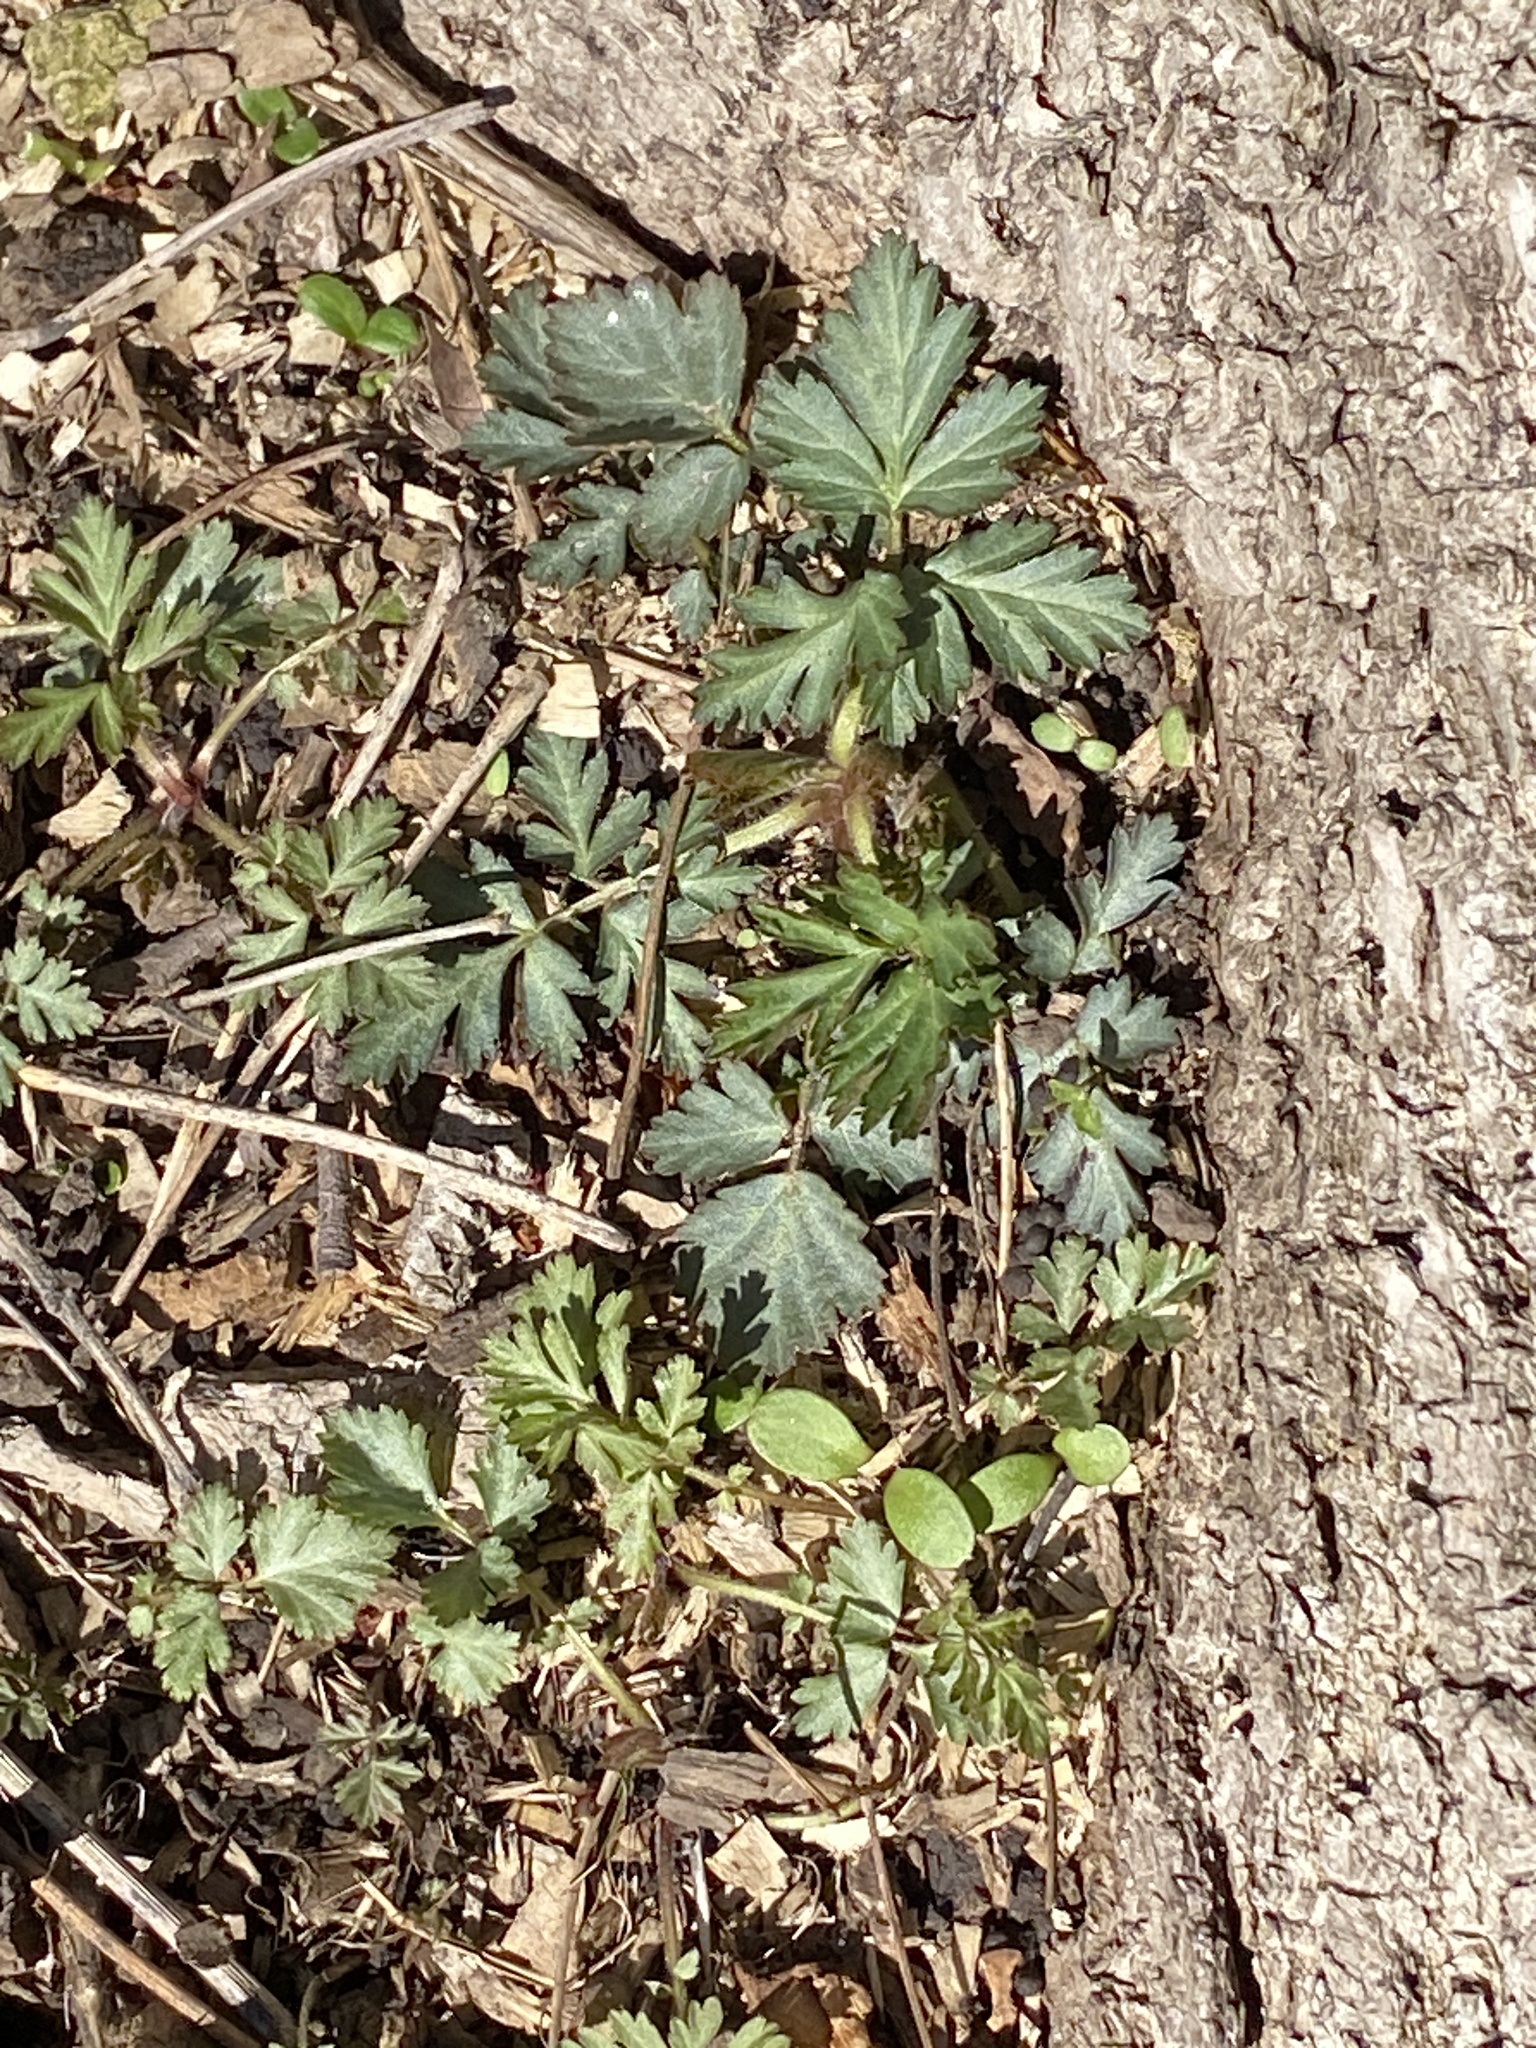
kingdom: Plantae
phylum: Tracheophyta
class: Magnoliopsida
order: Rosales
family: Rosaceae
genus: Geum
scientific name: Geum canadense
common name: White avens
